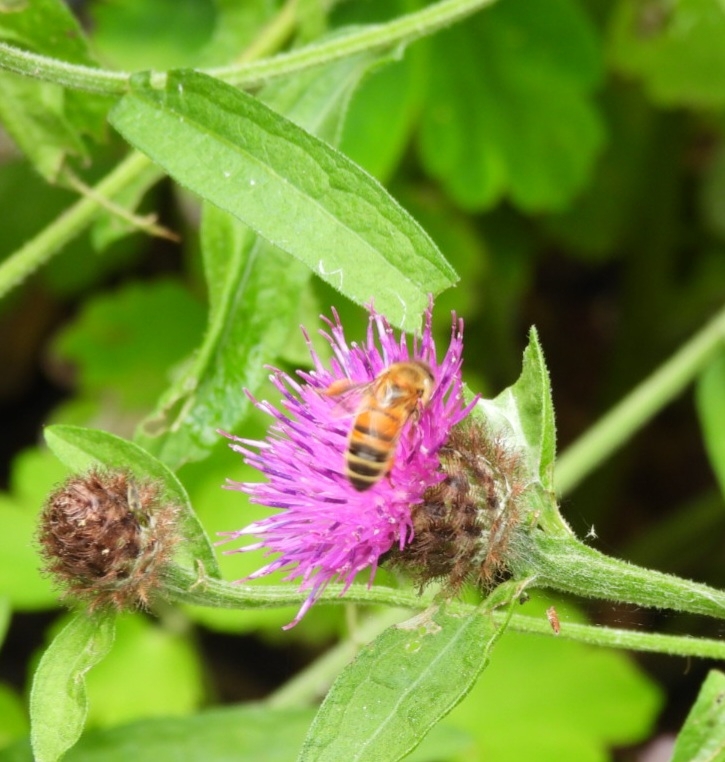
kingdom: Animalia
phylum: Arthropoda
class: Insecta
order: Hymenoptera
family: Apidae
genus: Apis
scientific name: Apis mellifera
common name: Honey bee
